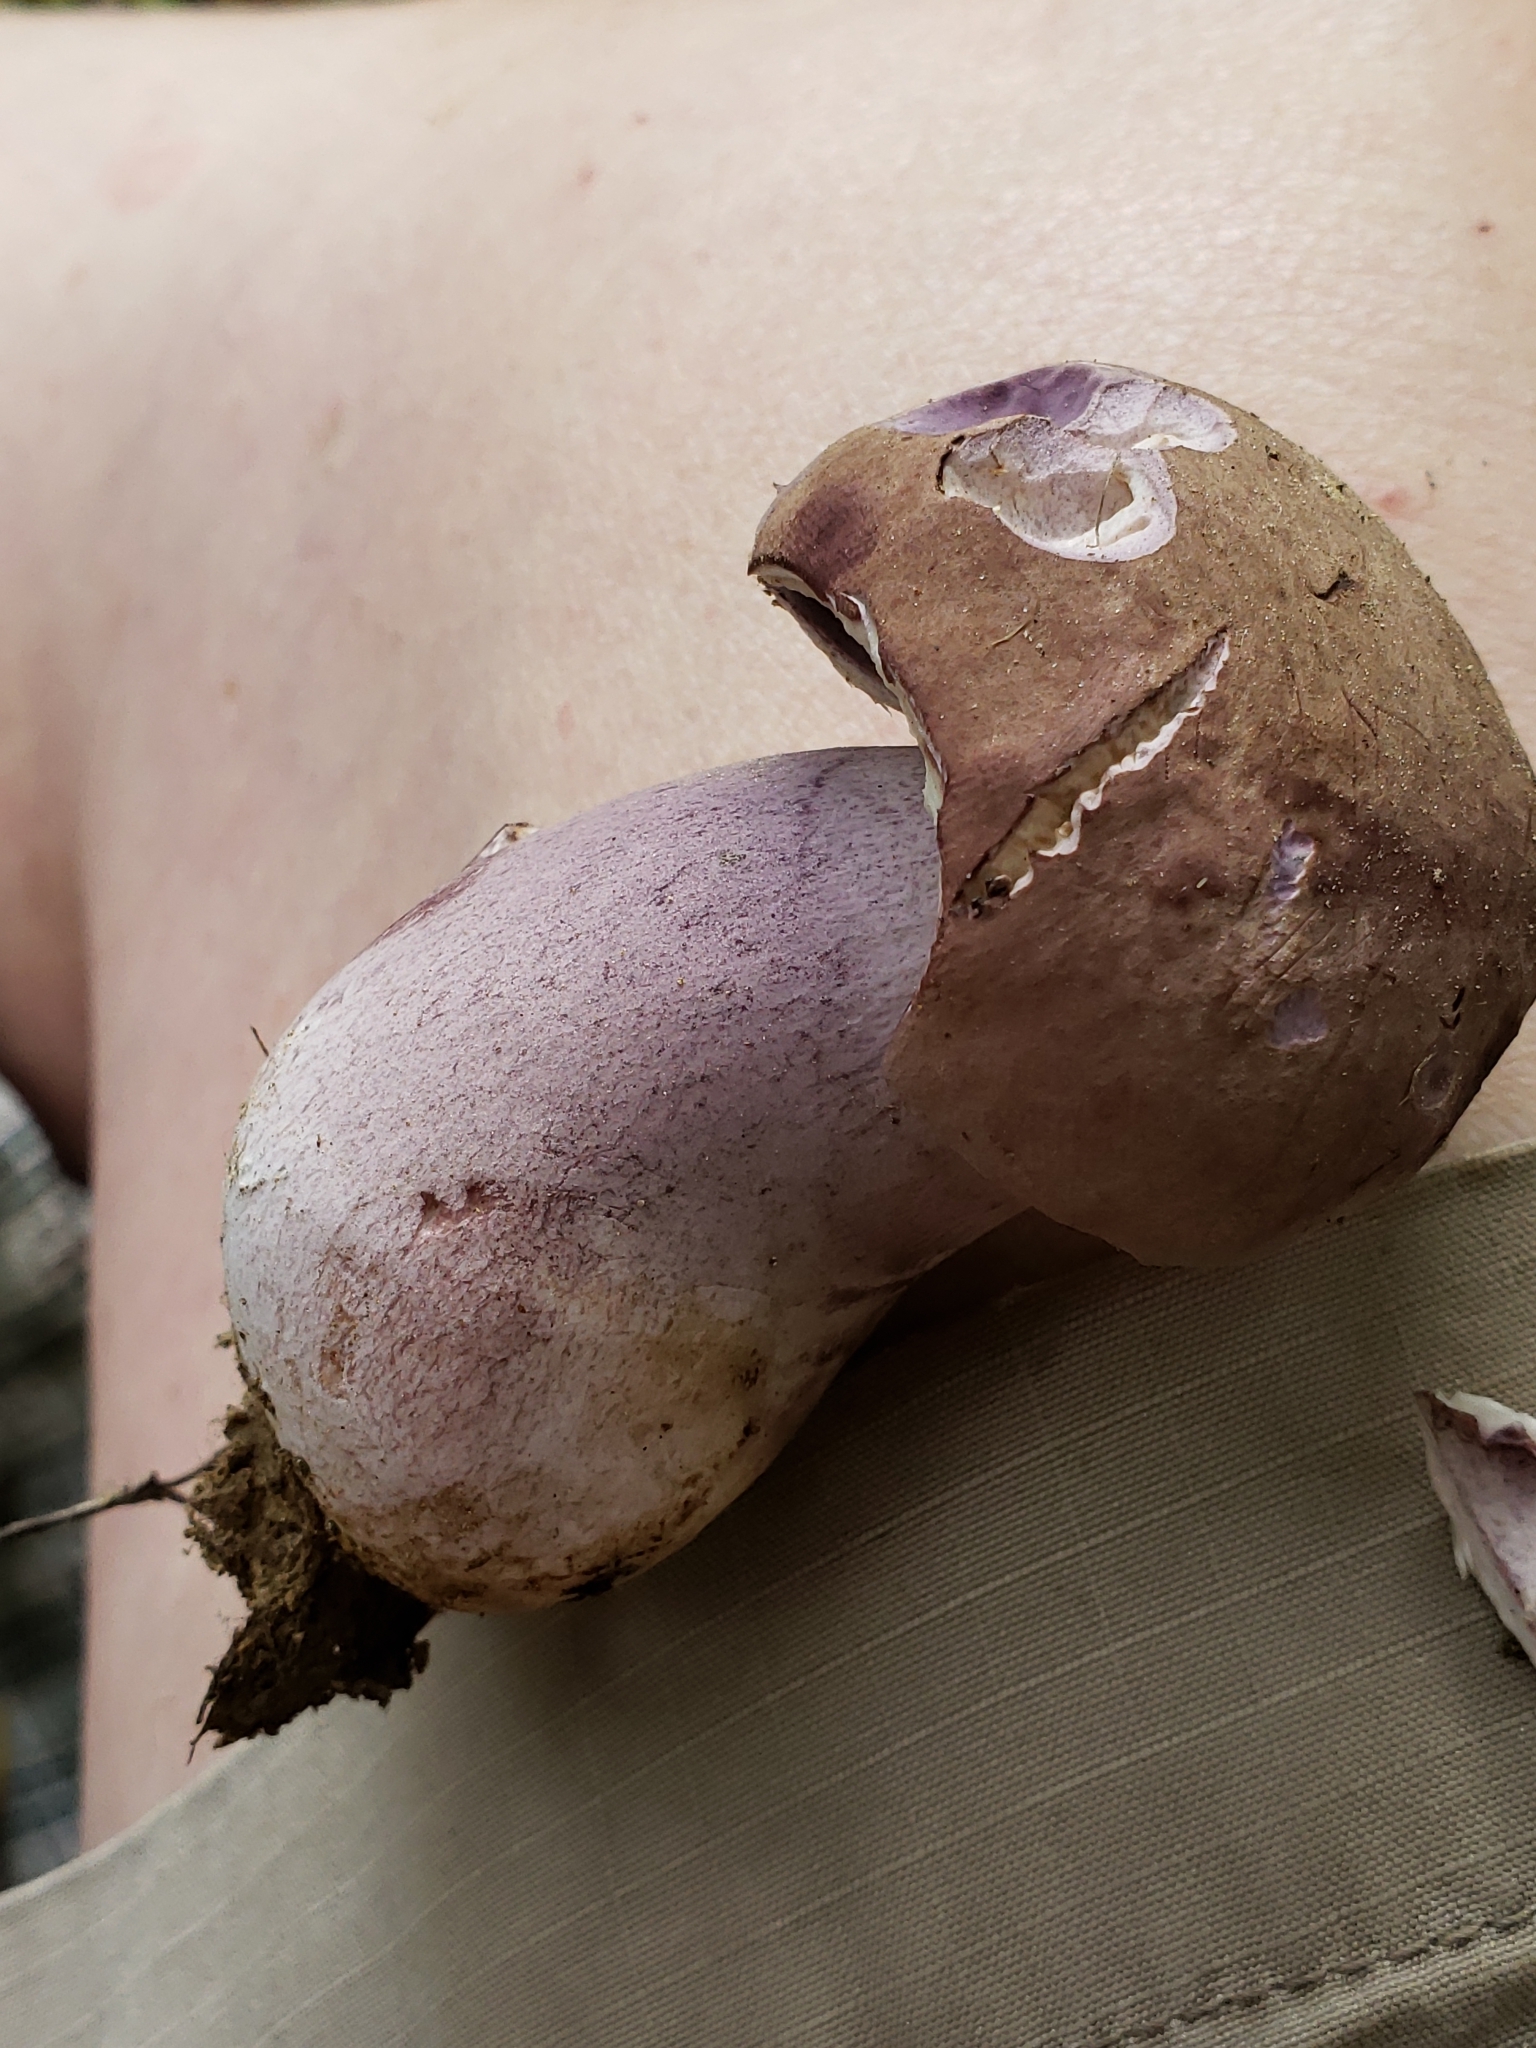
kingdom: Fungi
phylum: Basidiomycota
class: Agaricomycetes
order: Boletales
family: Boletaceae
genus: Tylopilus
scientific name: Tylopilus plumbeoviolaceus
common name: Violet gray bolete
